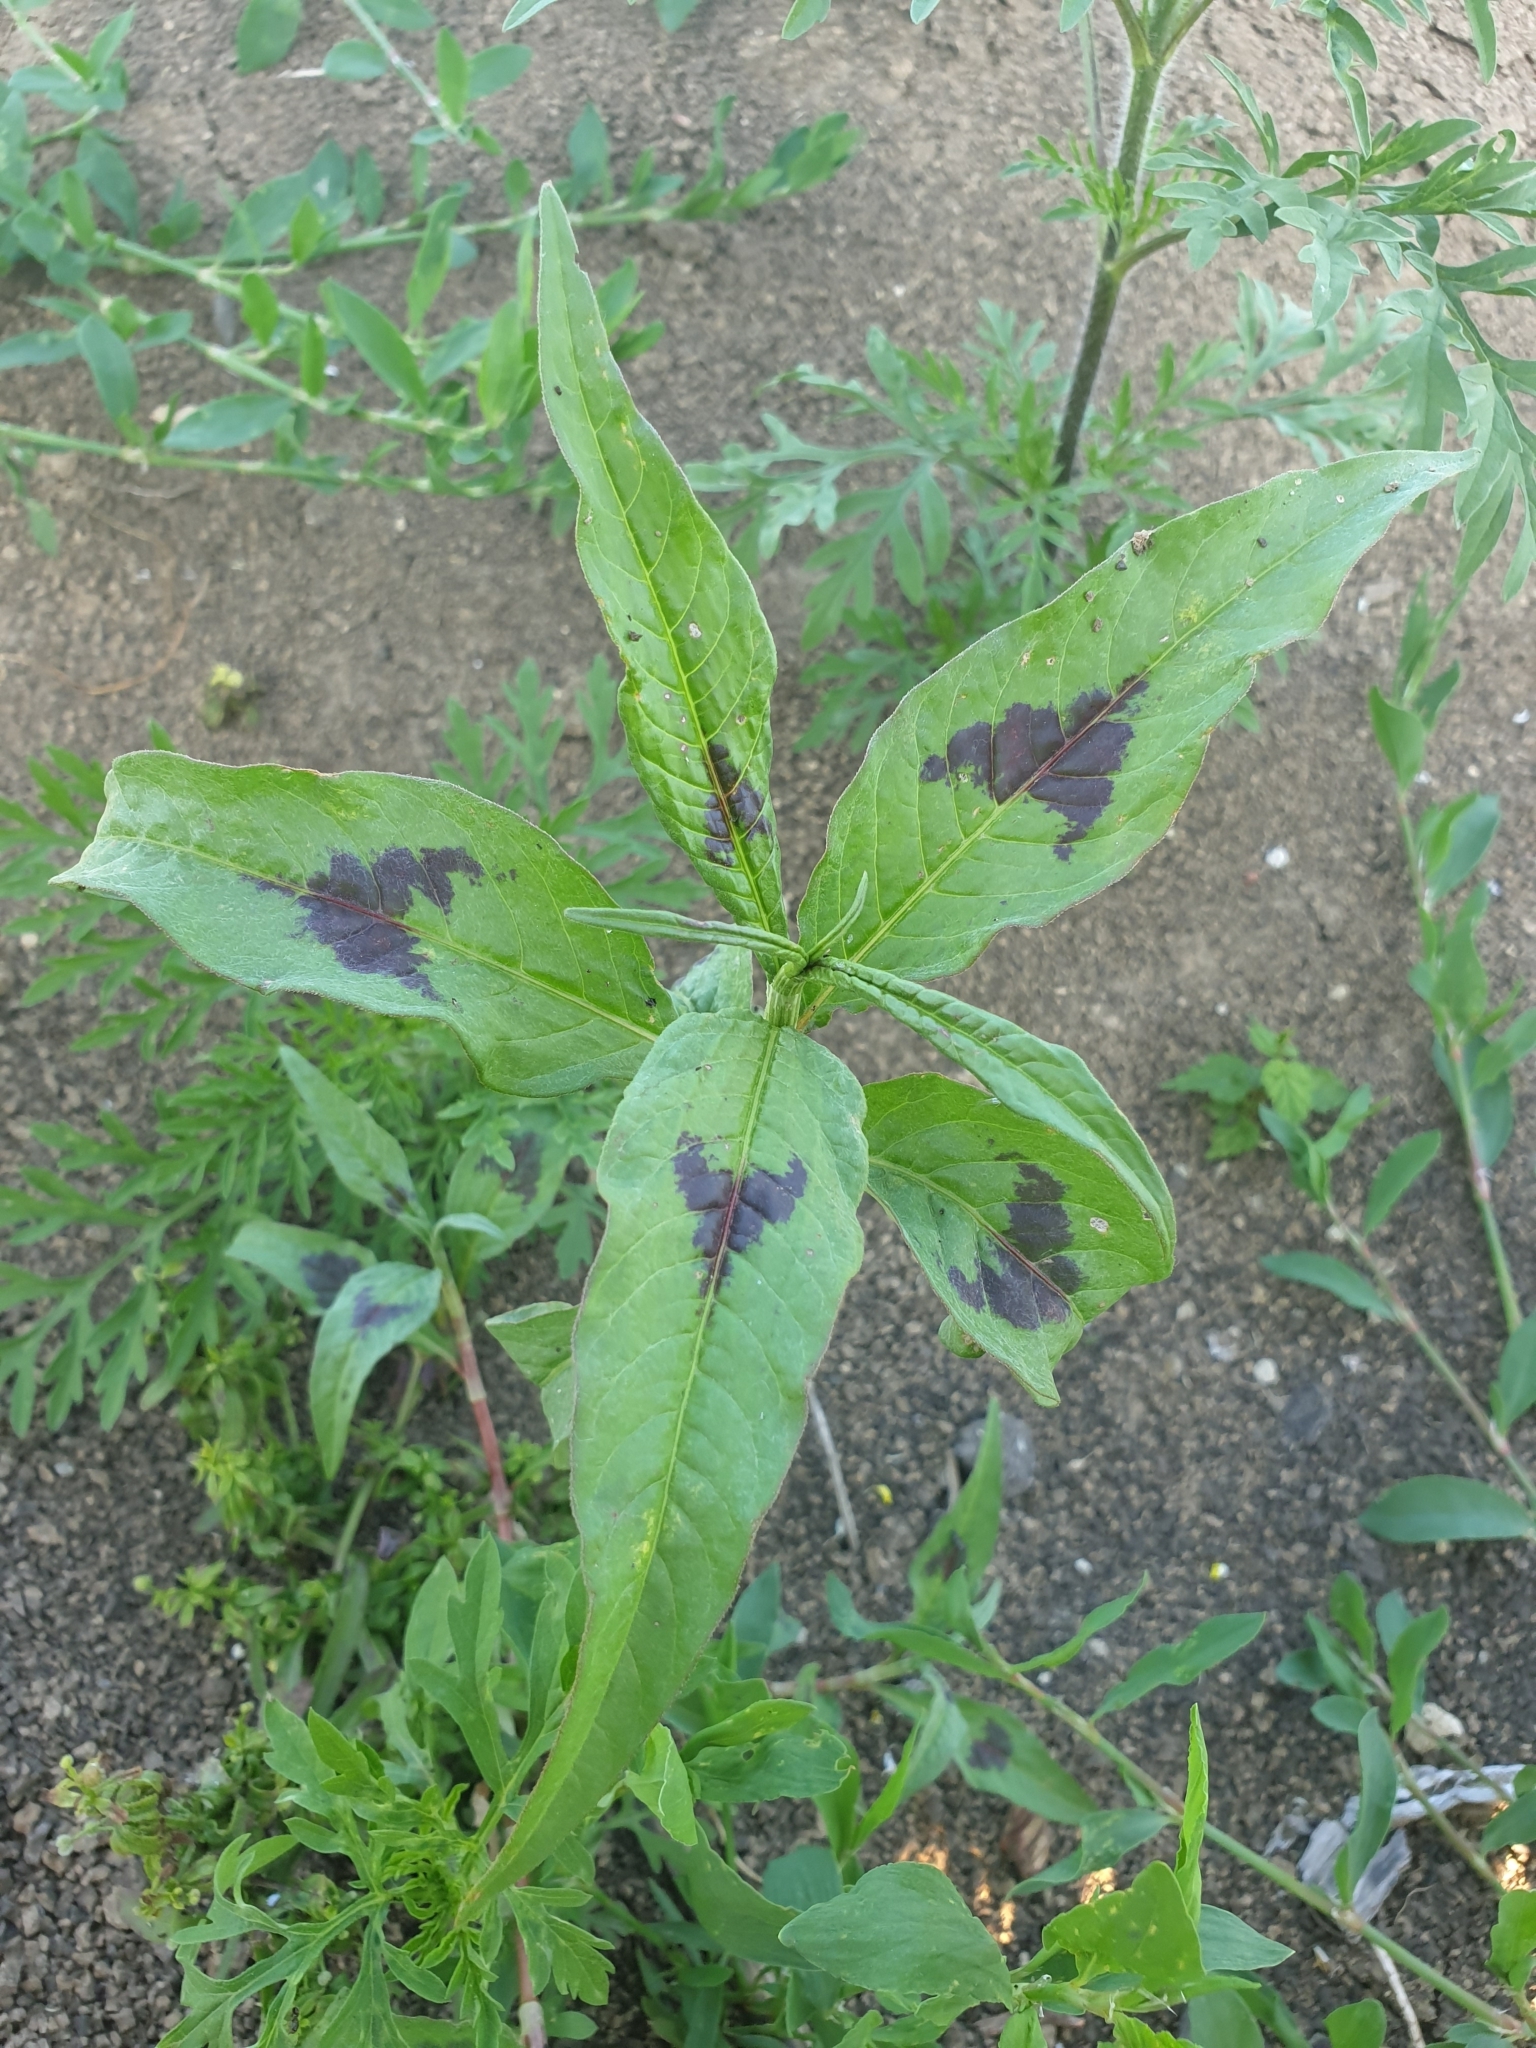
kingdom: Plantae
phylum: Tracheophyta
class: Magnoliopsida
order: Caryophyllales
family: Polygonaceae
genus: Persicaria
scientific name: Persicaria lapathifolia
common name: Curlytop knotweed
